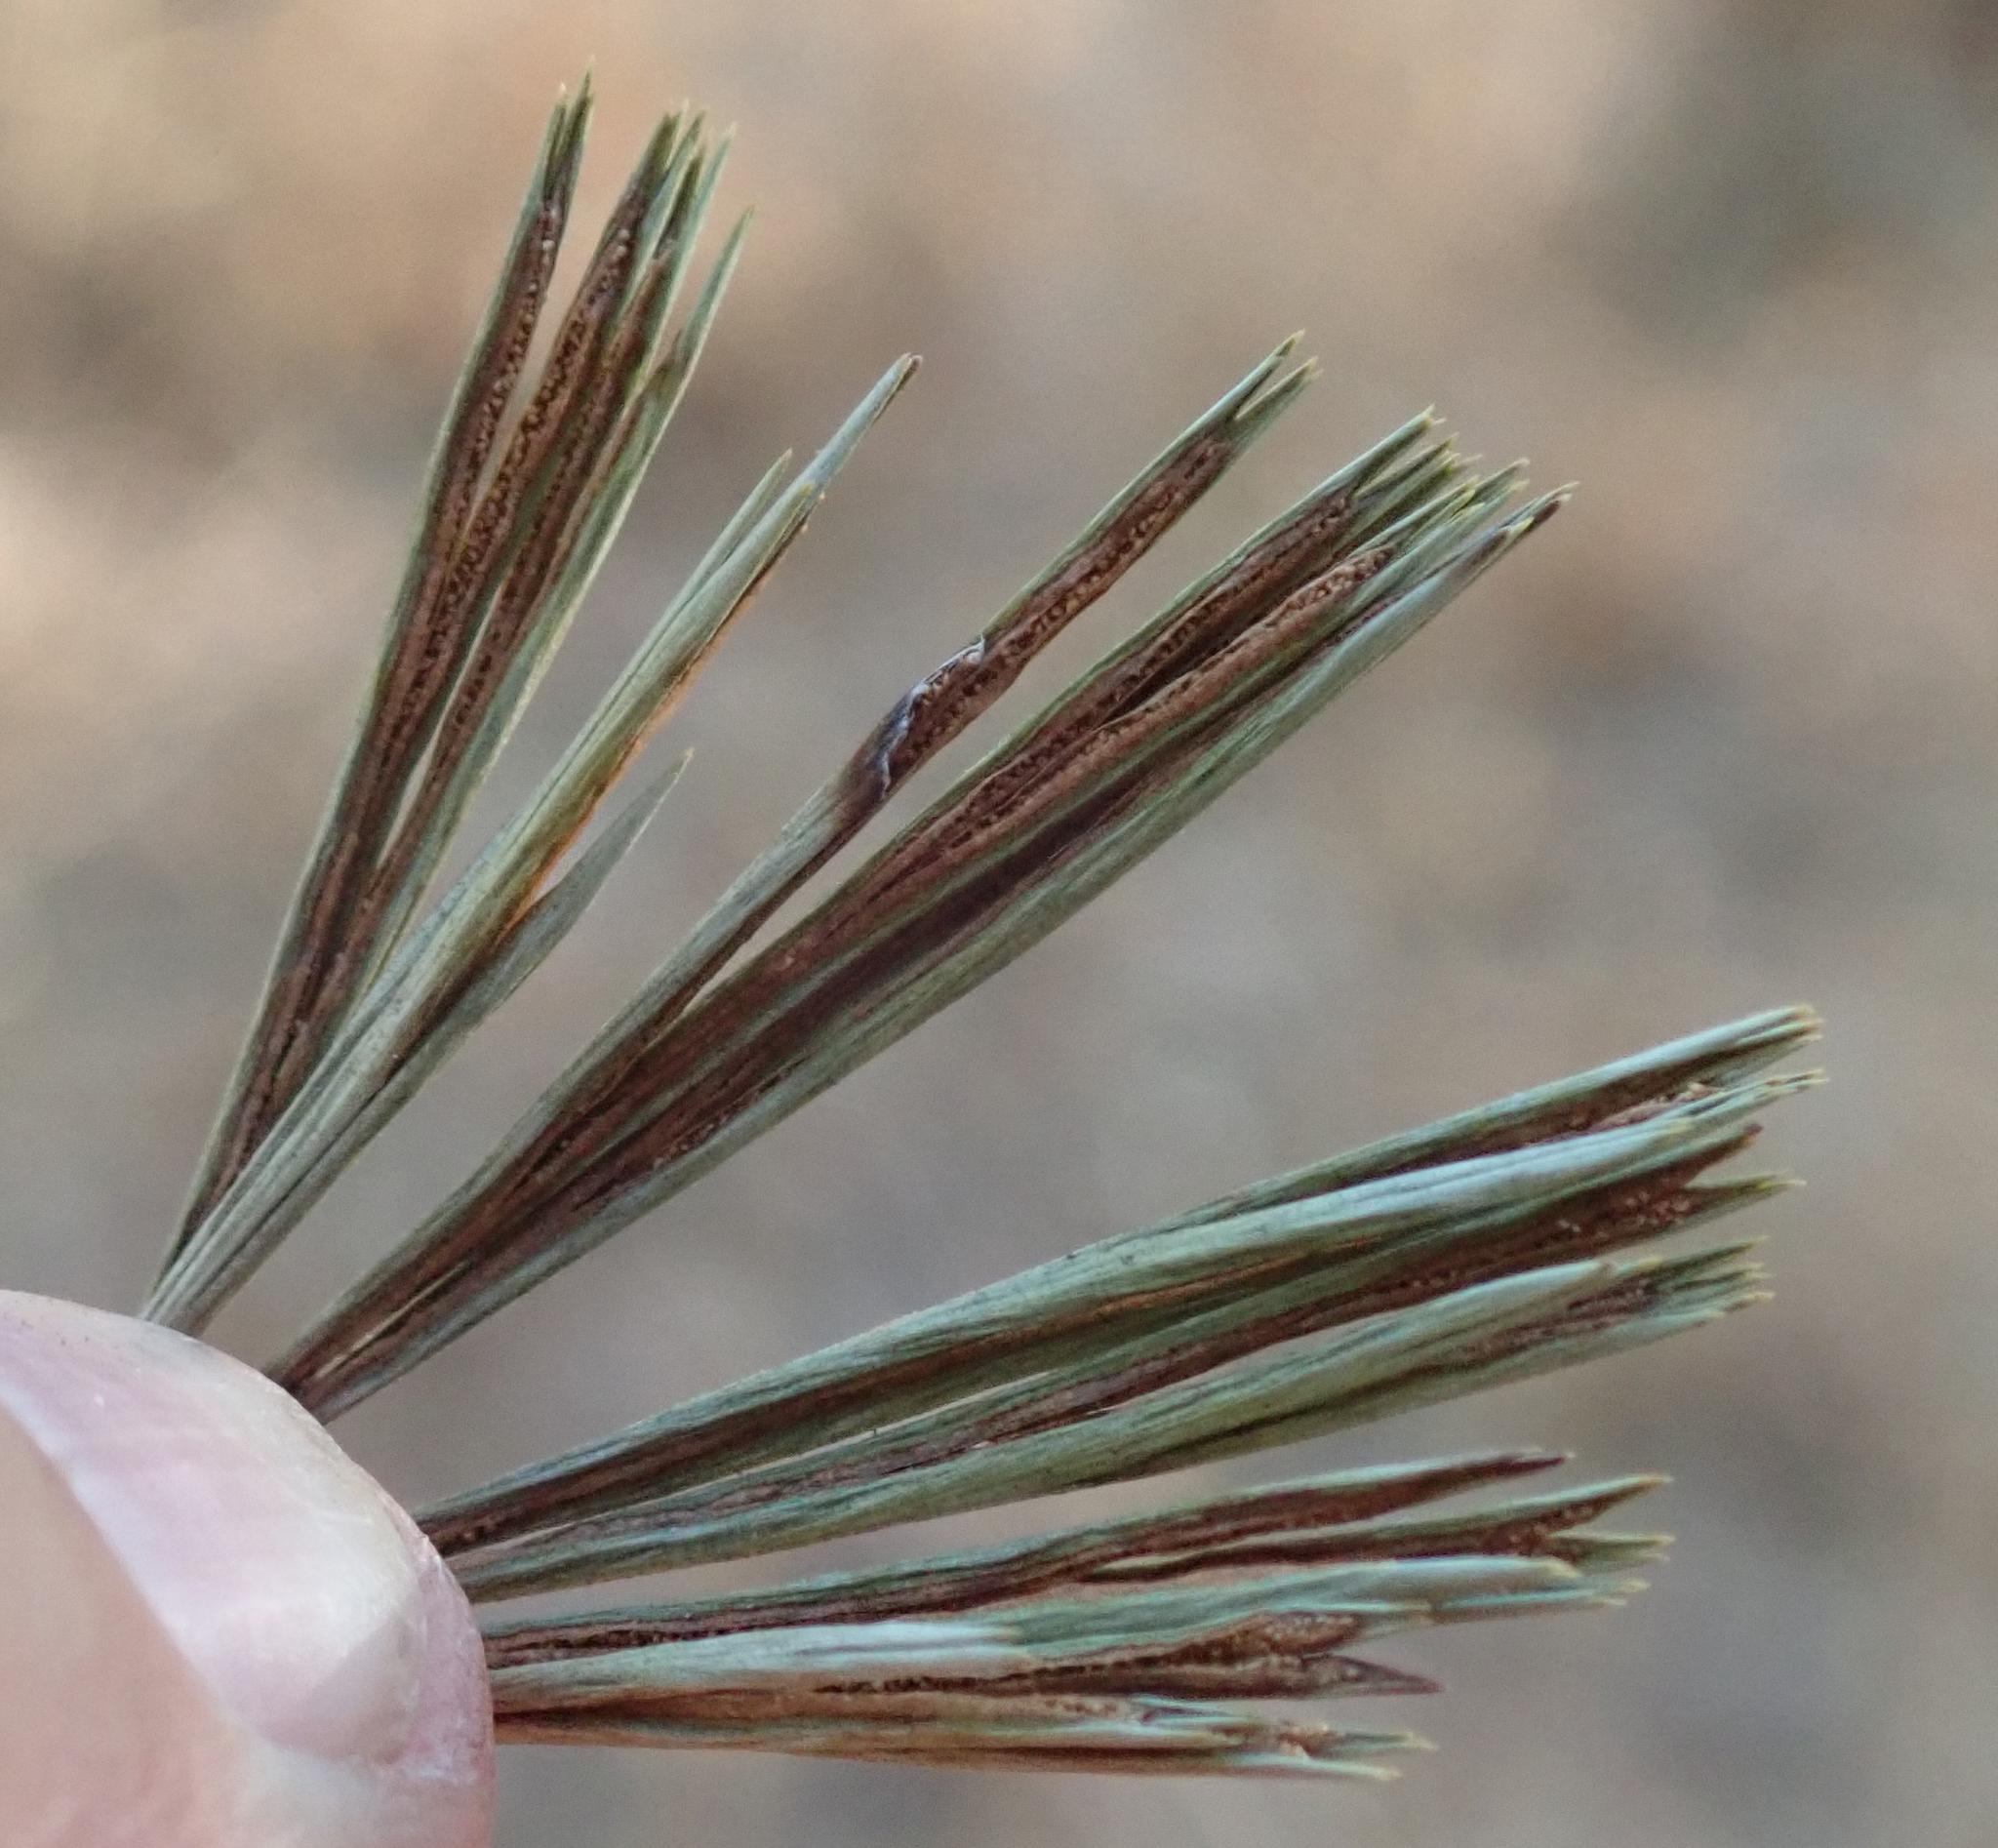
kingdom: Plantae
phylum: Tracheophyta
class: Polypodiopsida
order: Polypodiales
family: Pteridaceae
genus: Actiniopteris
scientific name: Actiniopteris radiata
